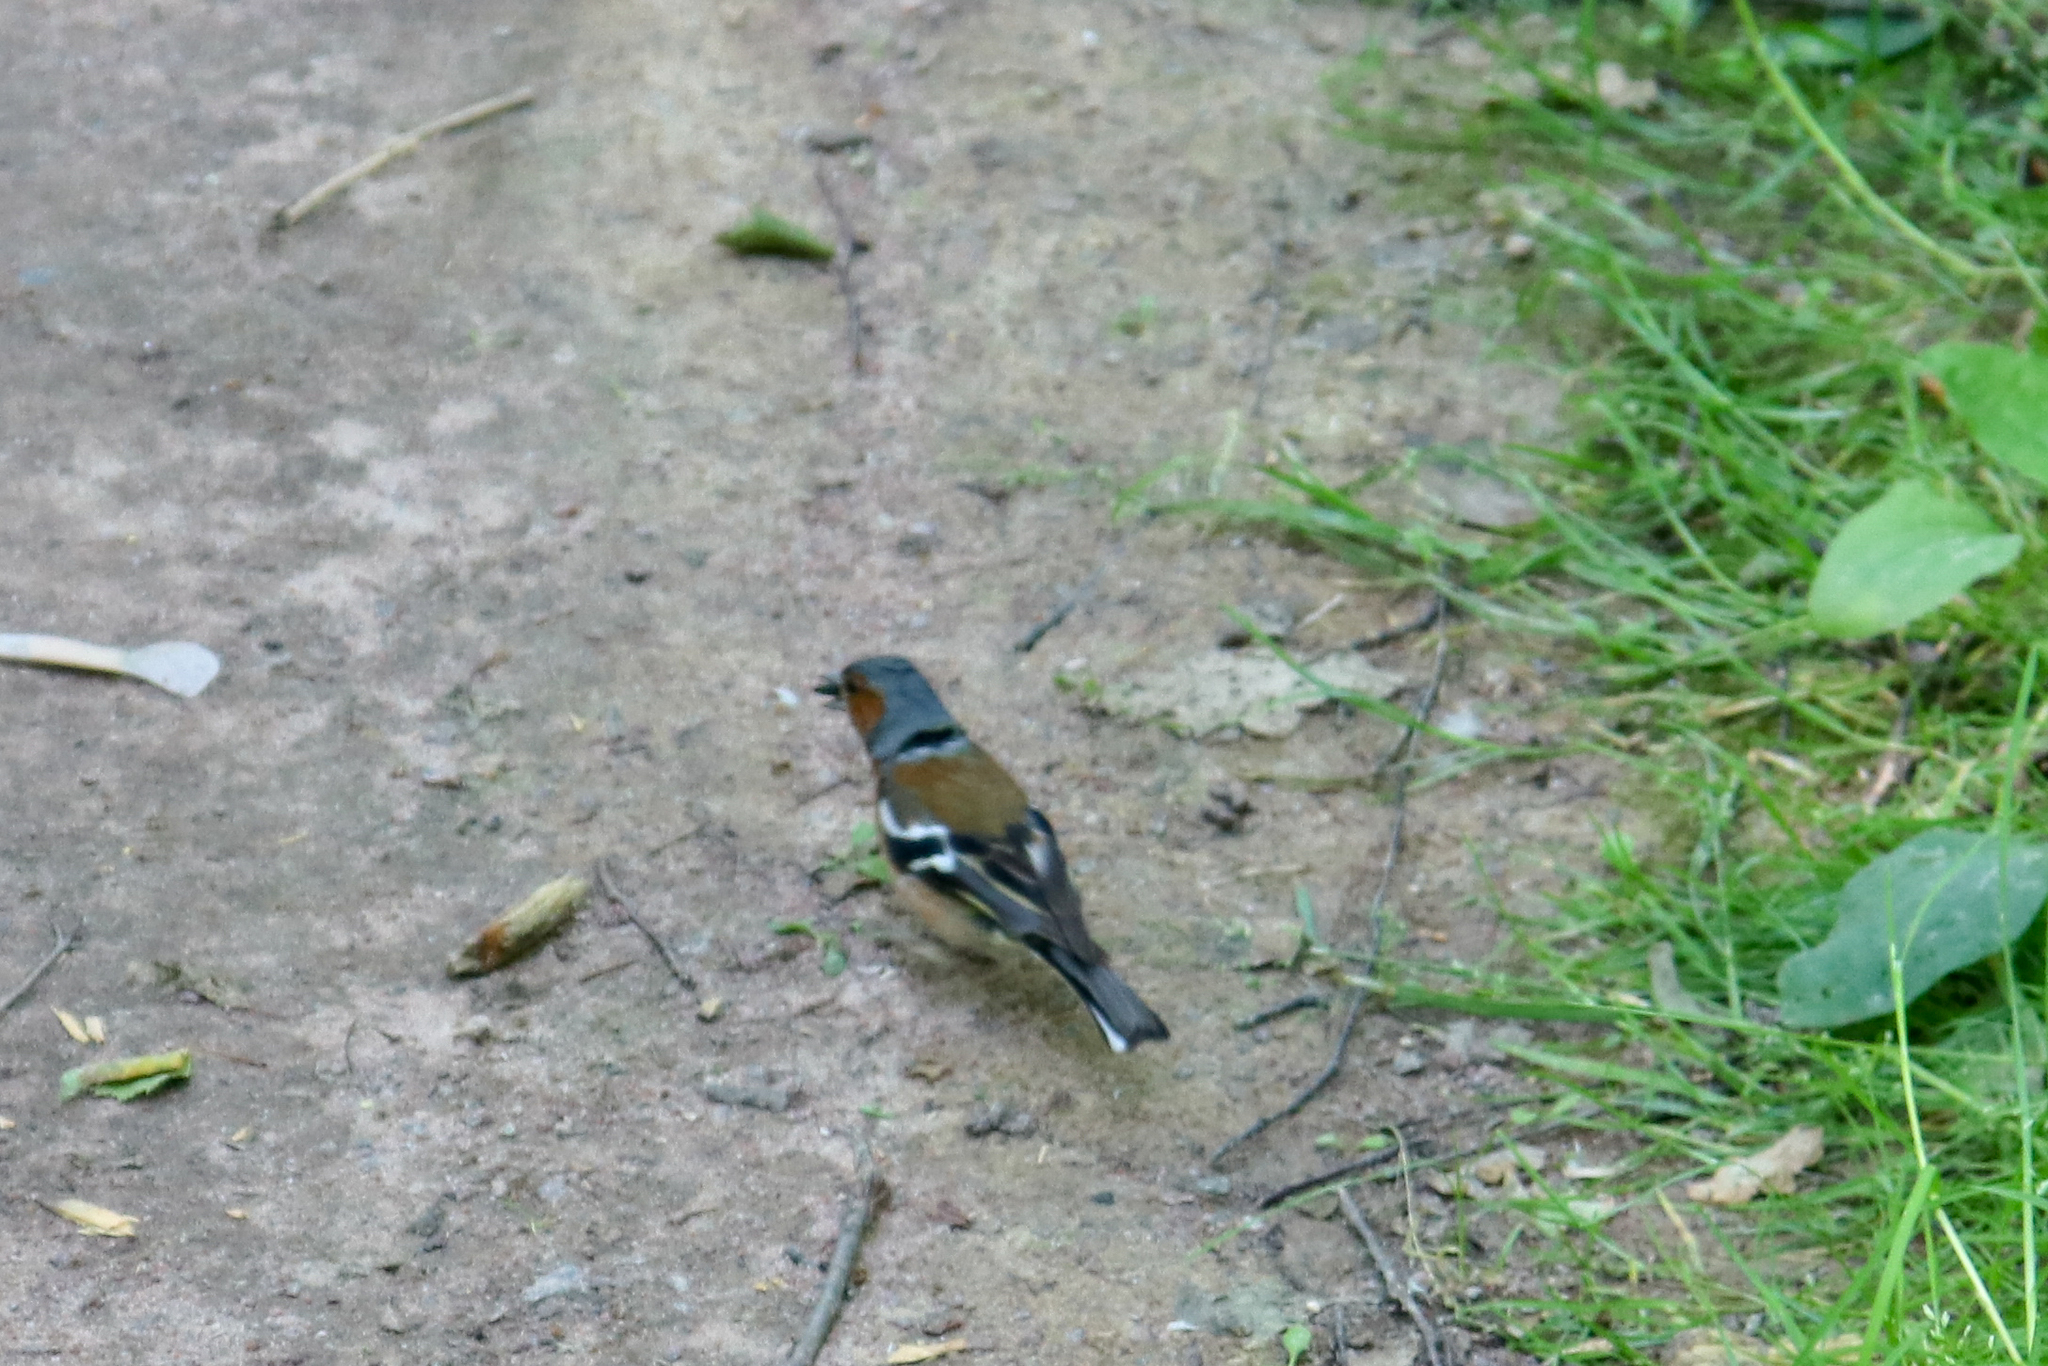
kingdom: Animalia
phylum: Chordata
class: Aves
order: Passeriformes
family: Fringillidae
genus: Fringilla
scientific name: Fringilla coelebs
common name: Common chaffinch
